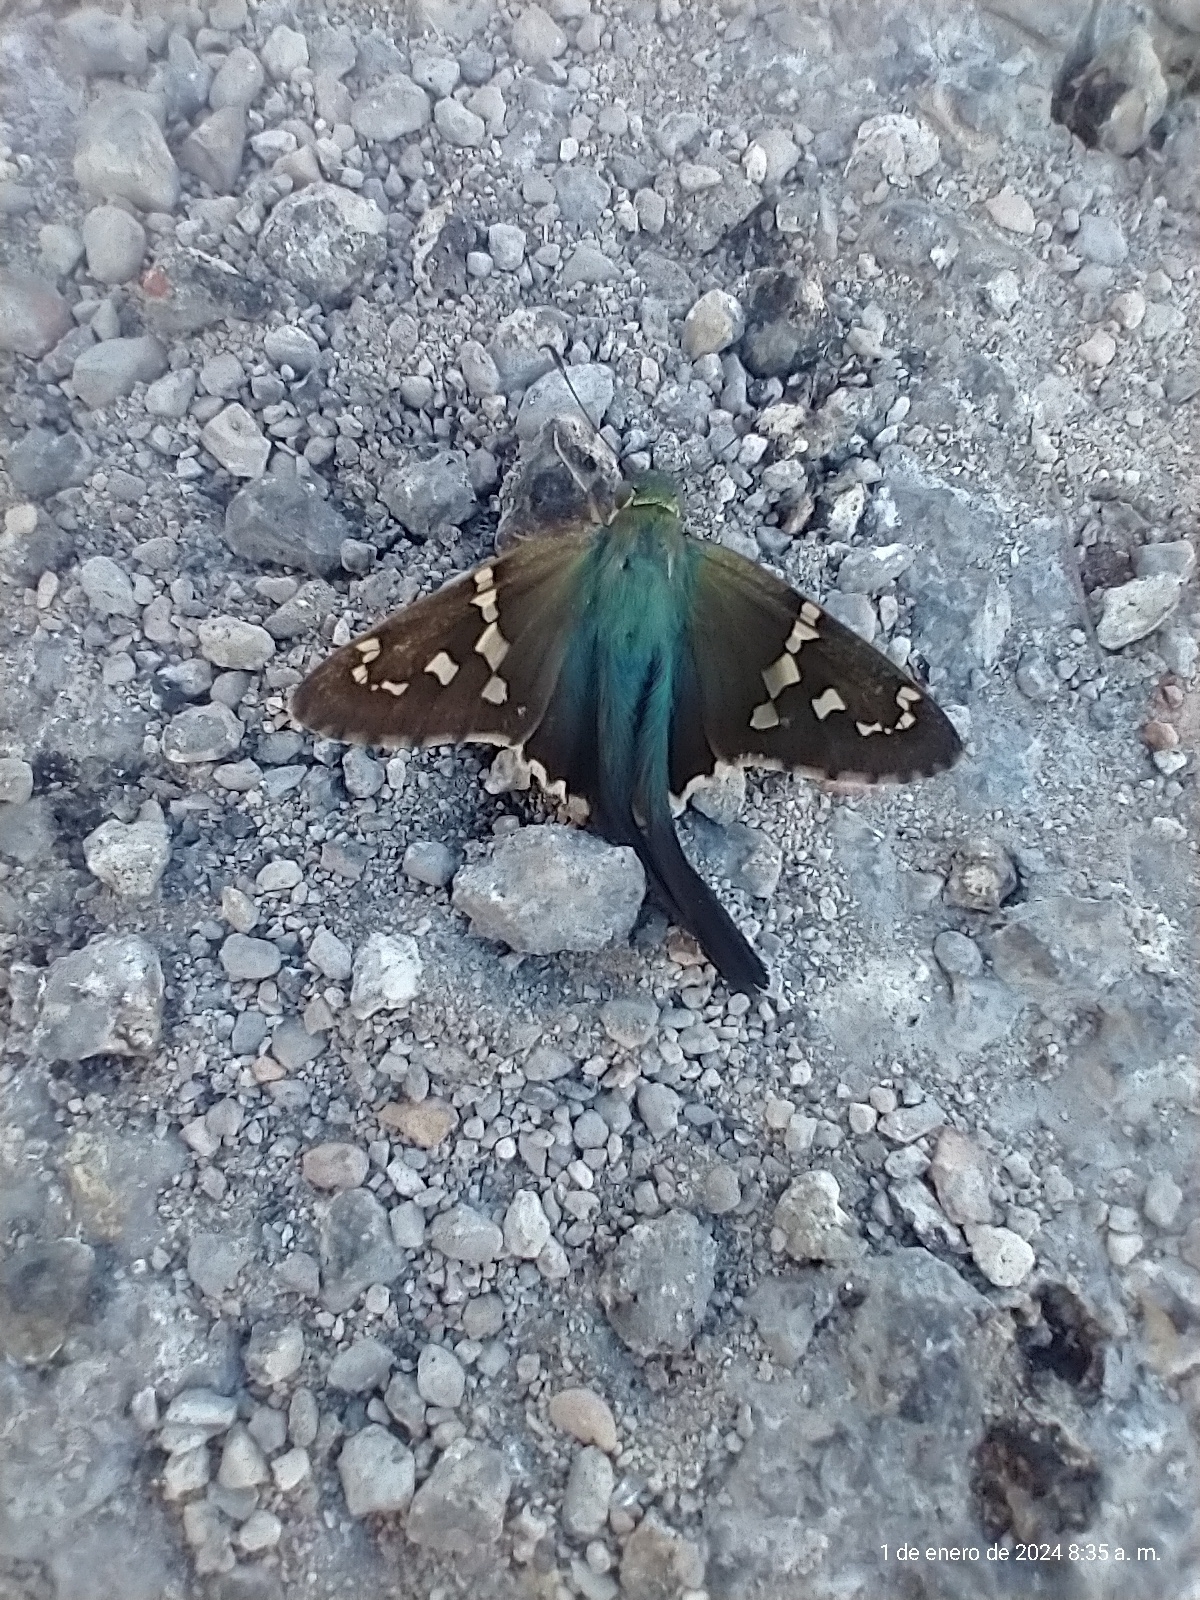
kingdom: Animalia
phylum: Arthropoda
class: Insecta
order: Lepidoptera
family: Hesperiidae
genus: Urbanus
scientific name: Urbanus proteus
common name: Long-tailed skipper
